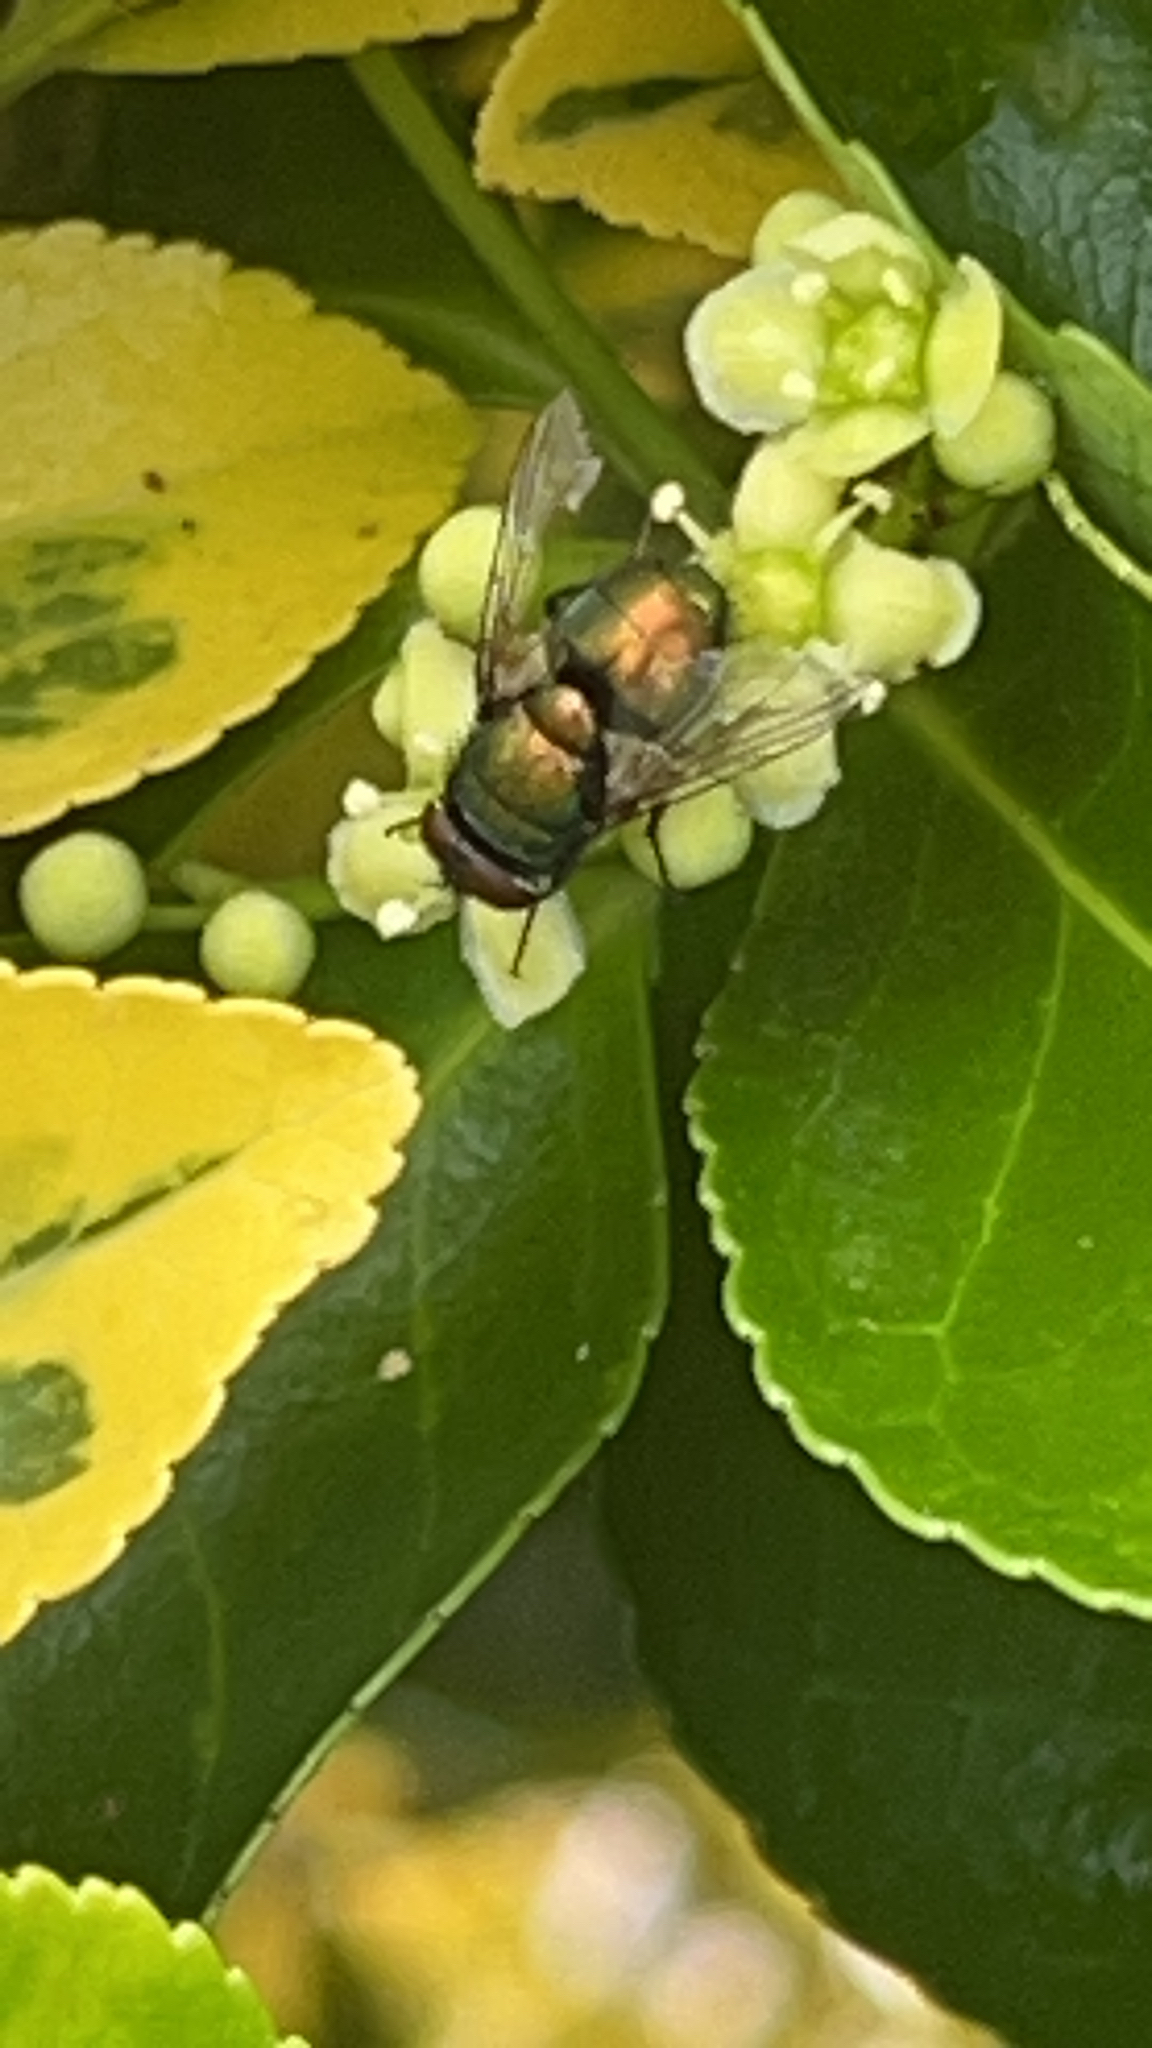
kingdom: Animalia
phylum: Arthropoda
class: Insecta
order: Diptera
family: Calliphoridae
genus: Lucilia
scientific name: Lucilia
